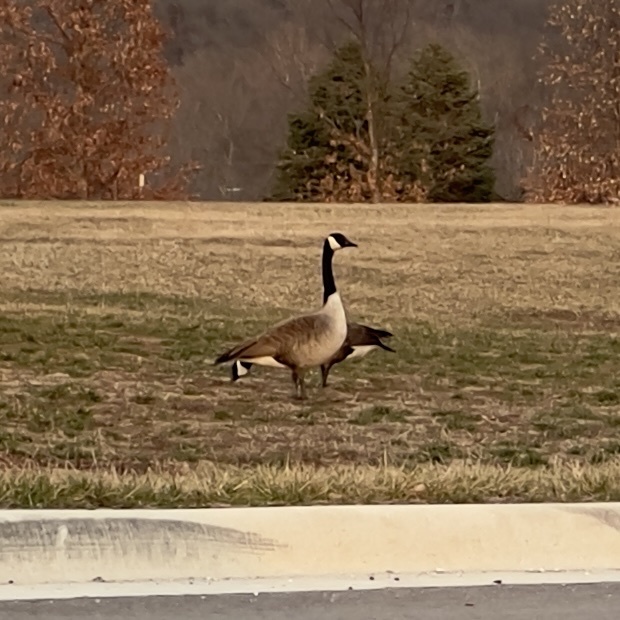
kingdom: Animalia
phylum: Chordata
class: Aves
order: Anseriformes
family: Anatidae
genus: Branta
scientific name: Branta canadensis
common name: Canada goose
